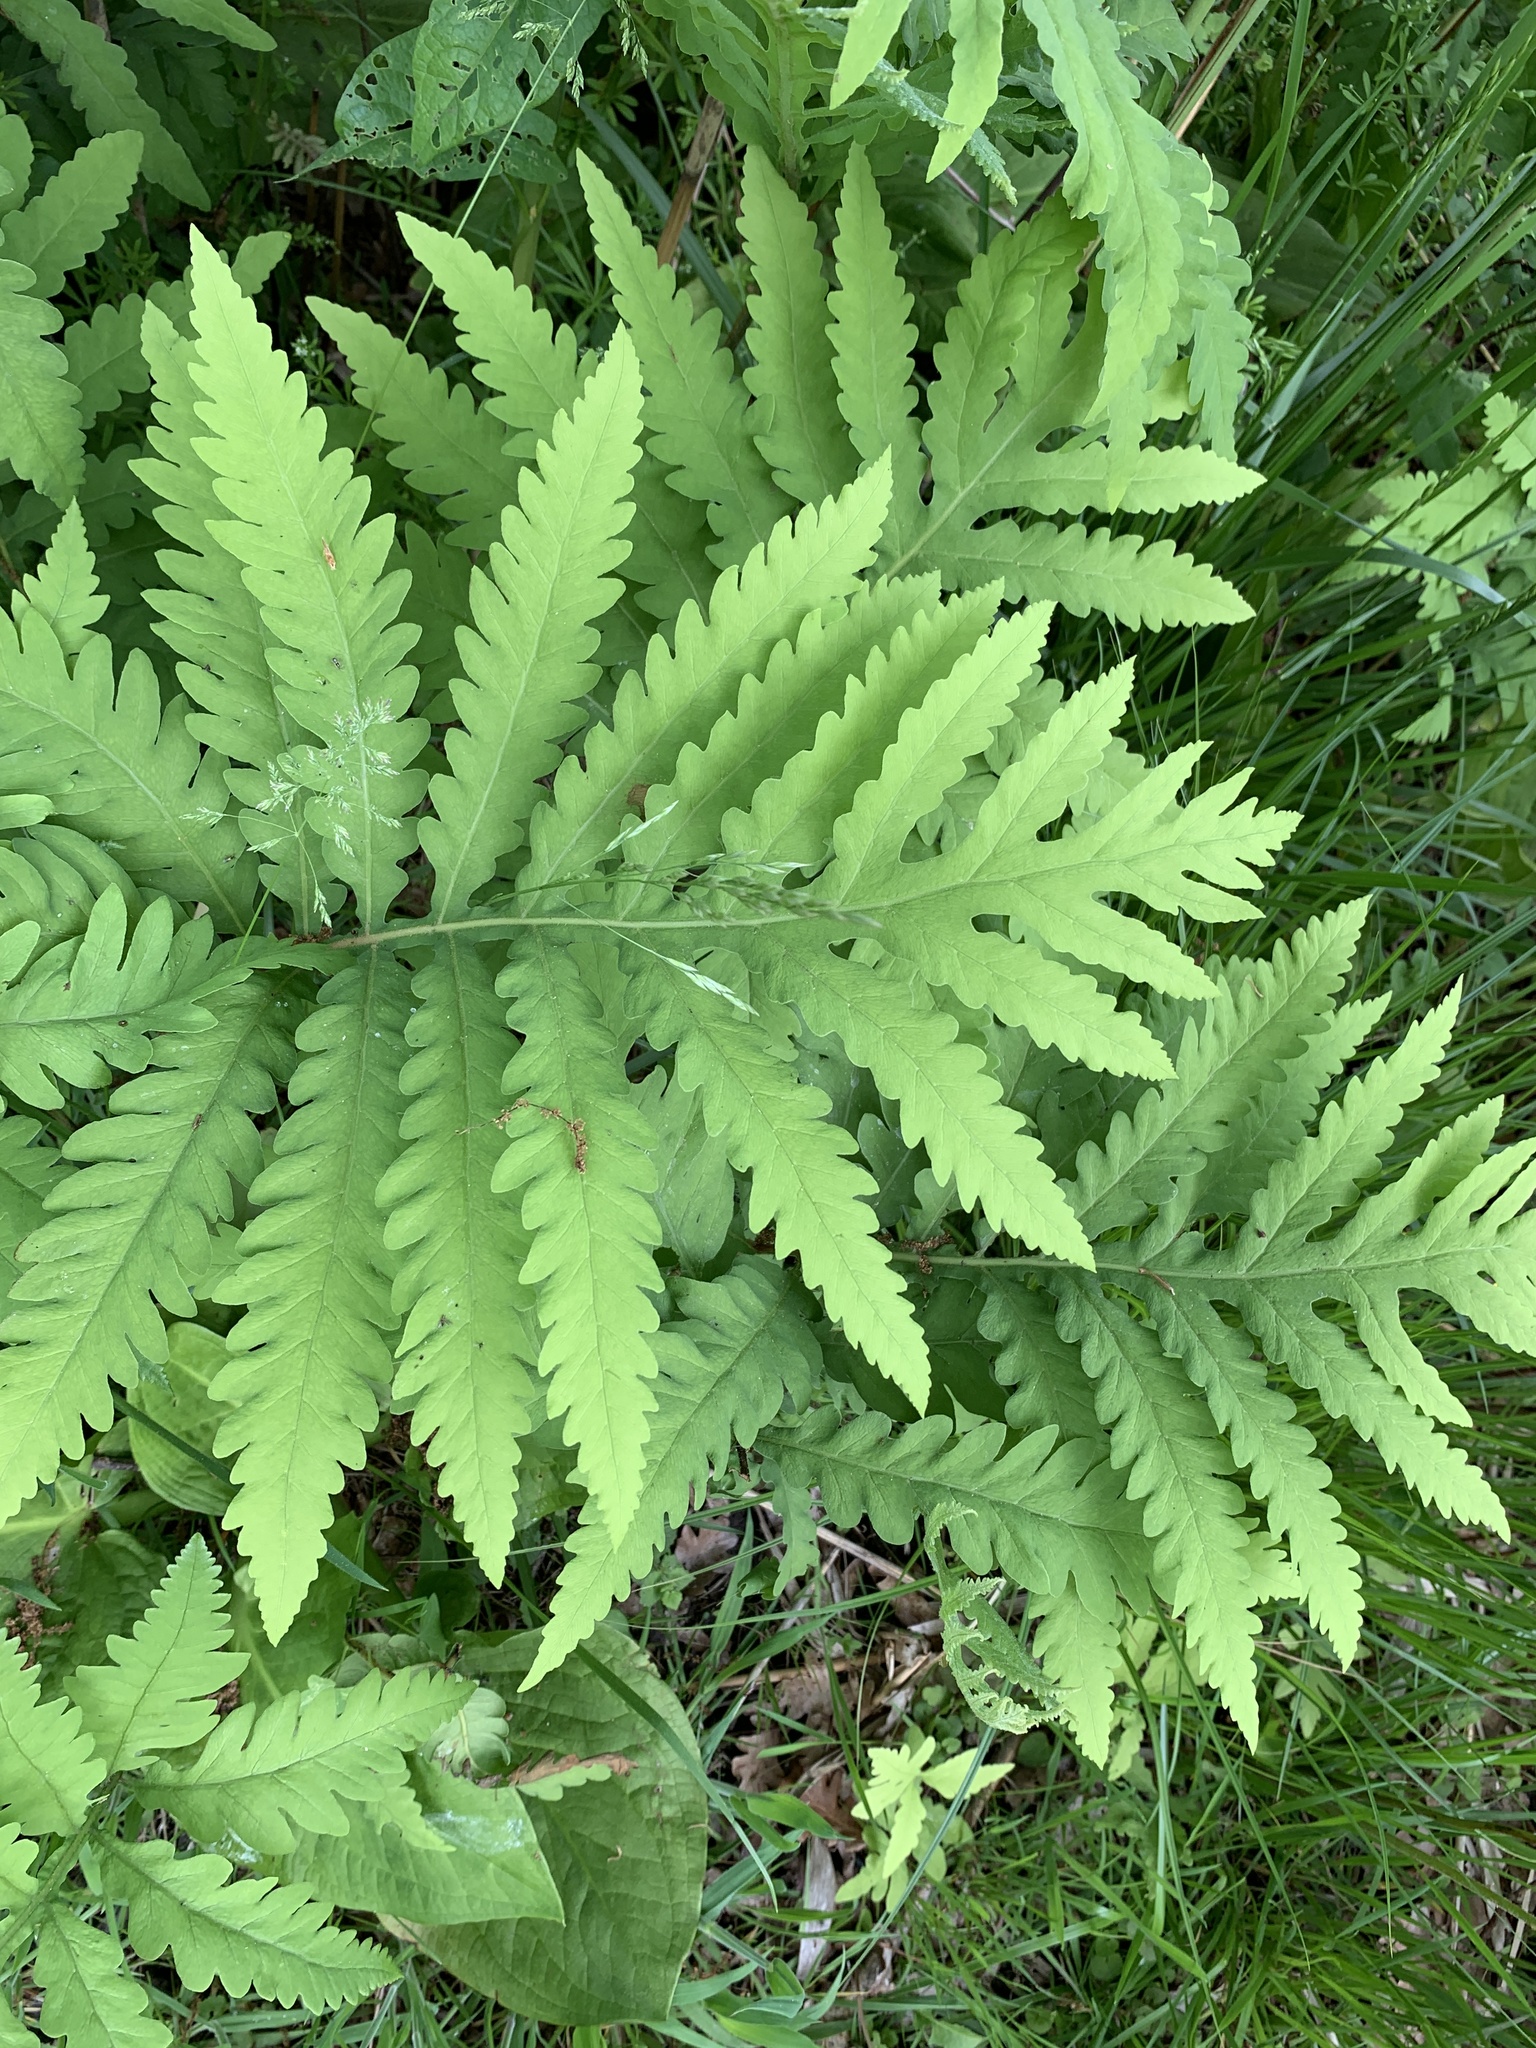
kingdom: Plantae
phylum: Tracheophyta
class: Polypodiopsida
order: Polypodiales
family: Onocleaceae
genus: Onoclea
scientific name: Onoclea sensibilis
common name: Sensitive fern
